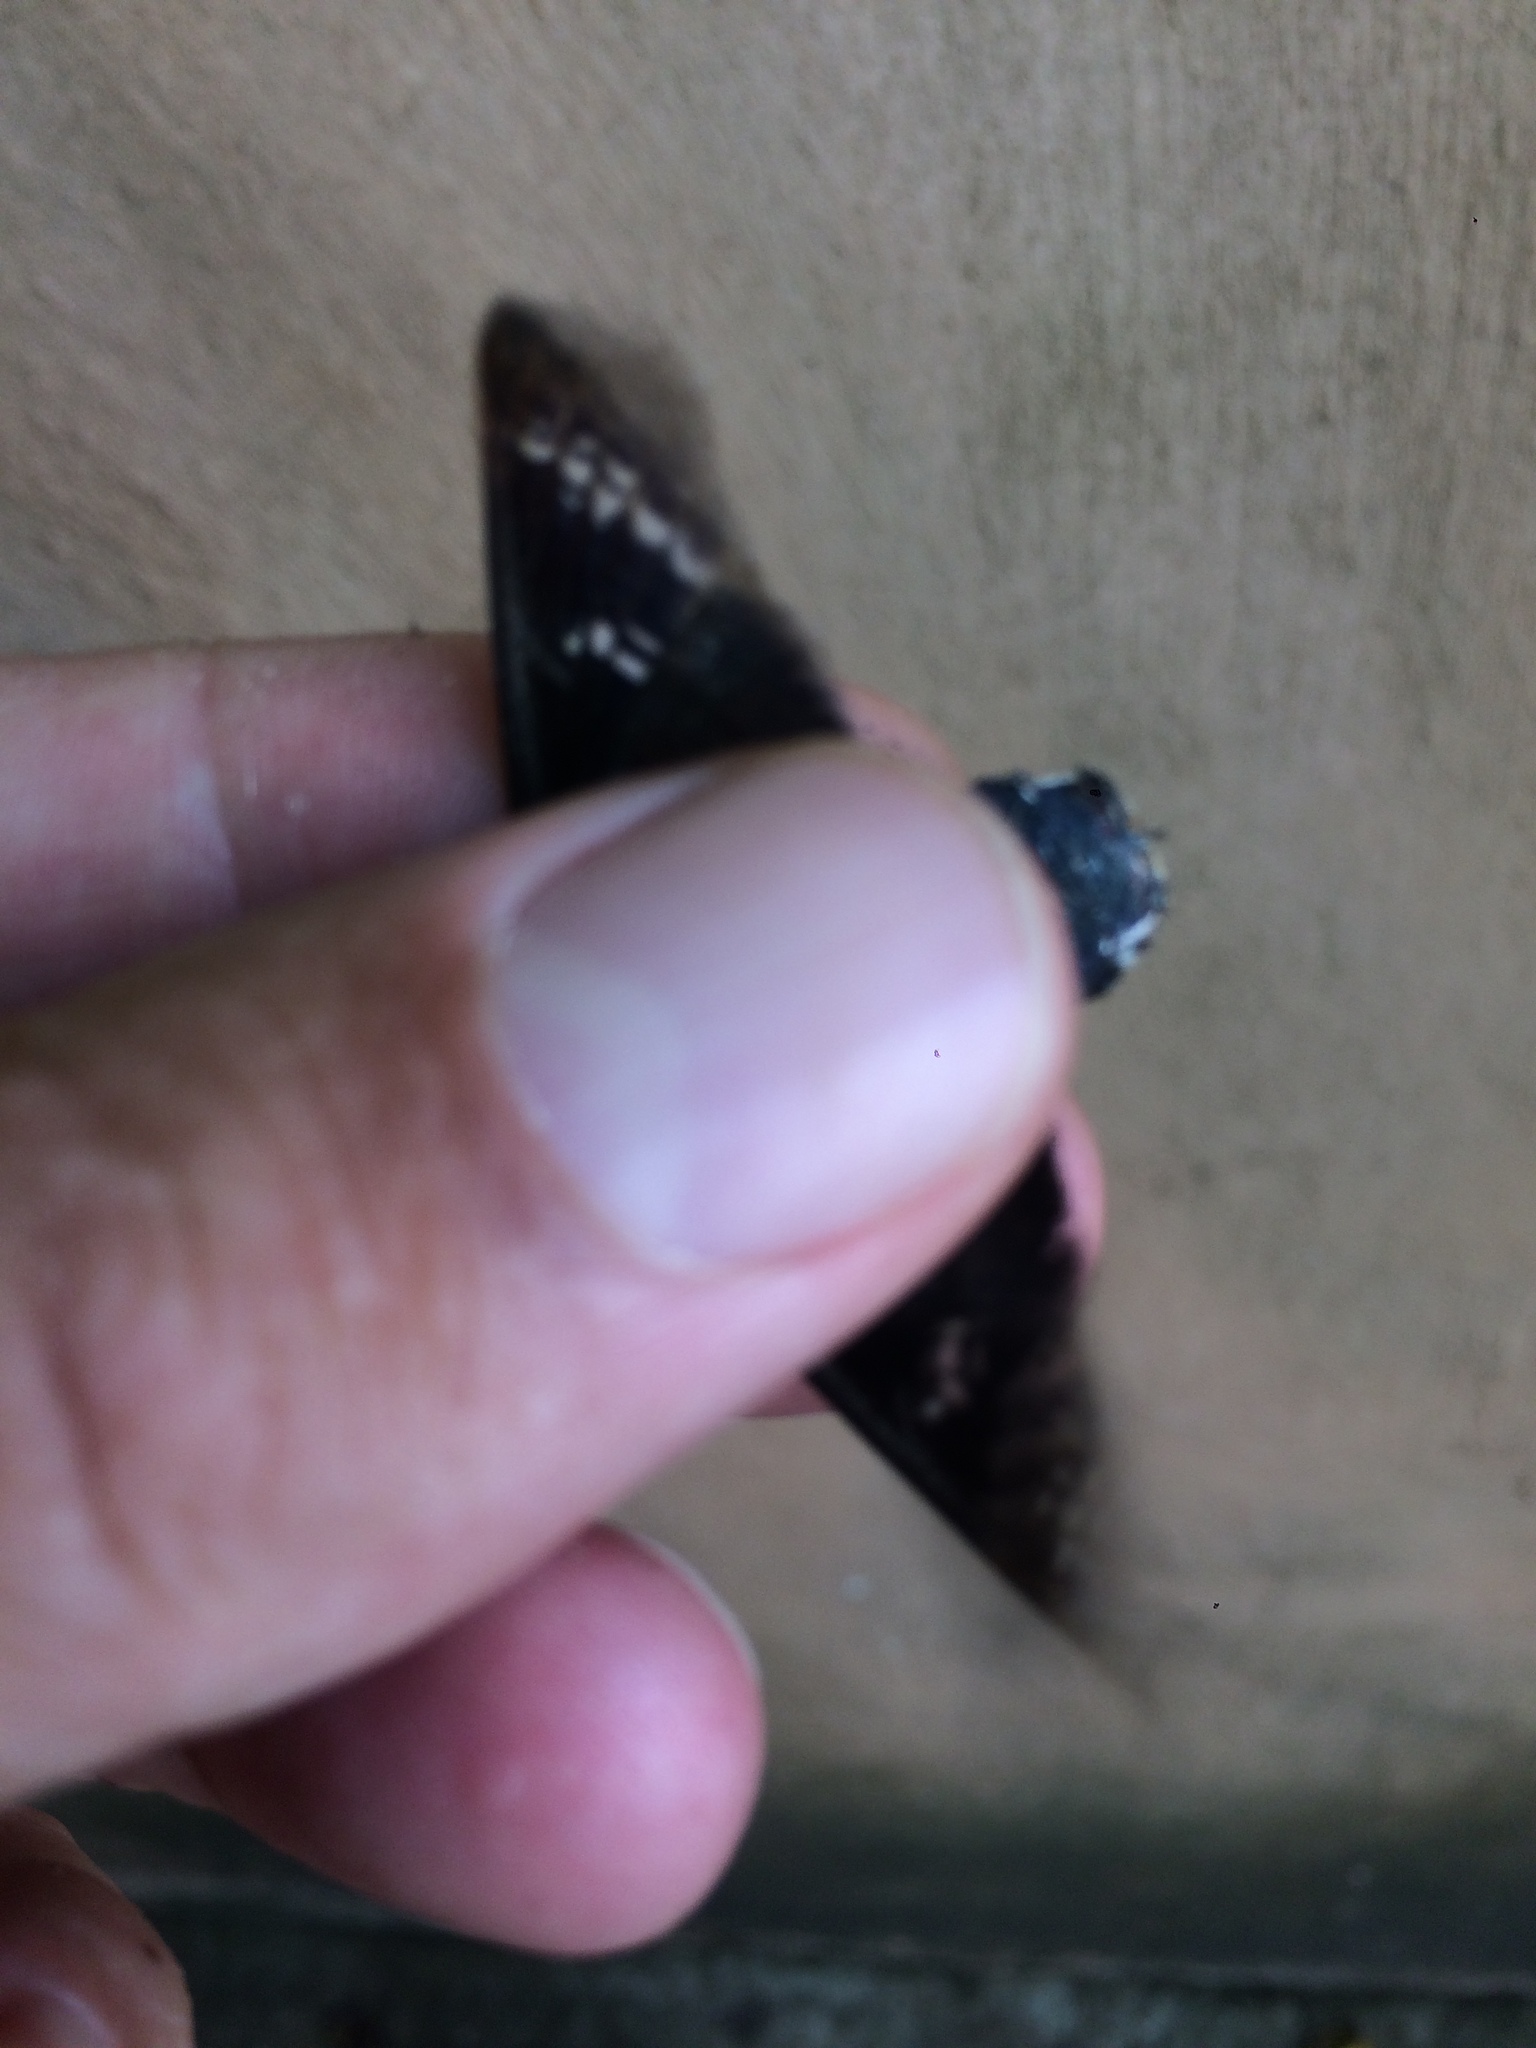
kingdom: Animalia
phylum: Arthropoda
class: Insecta
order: Lepidoptera
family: Sphingidae
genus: Aellopos
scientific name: Aellopos fadus
